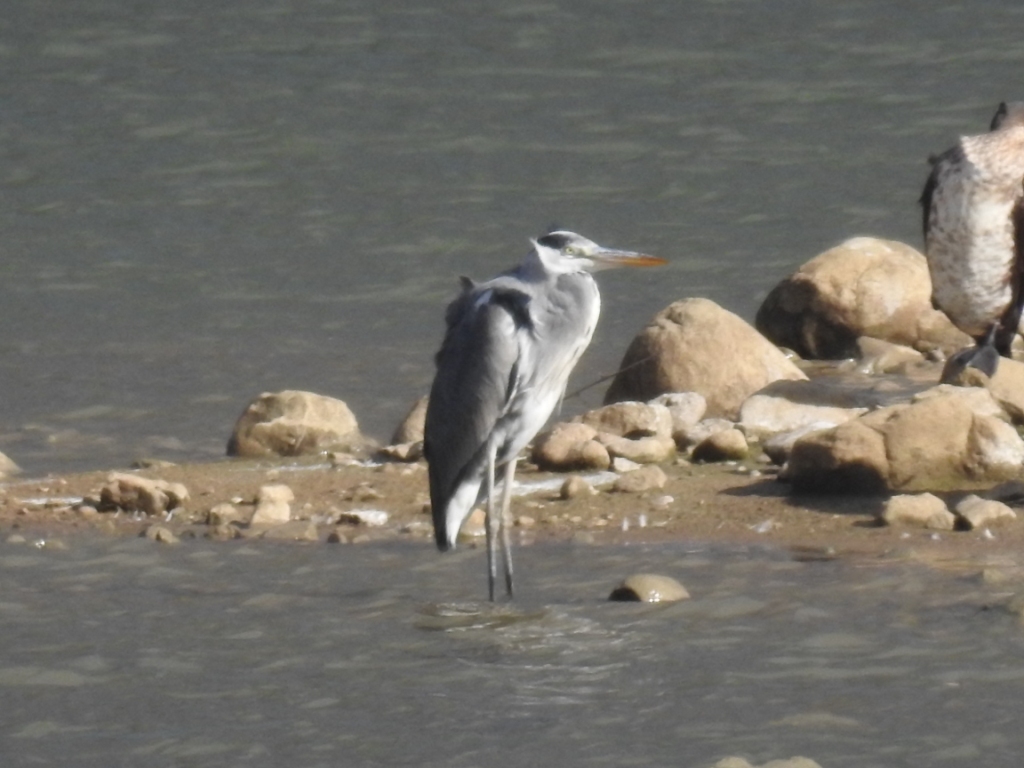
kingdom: Animalia
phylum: Chordata
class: Aves
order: Pelecaniformes
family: Ardeidae
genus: Ardea
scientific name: Ardea cinerea
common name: Grey heron
